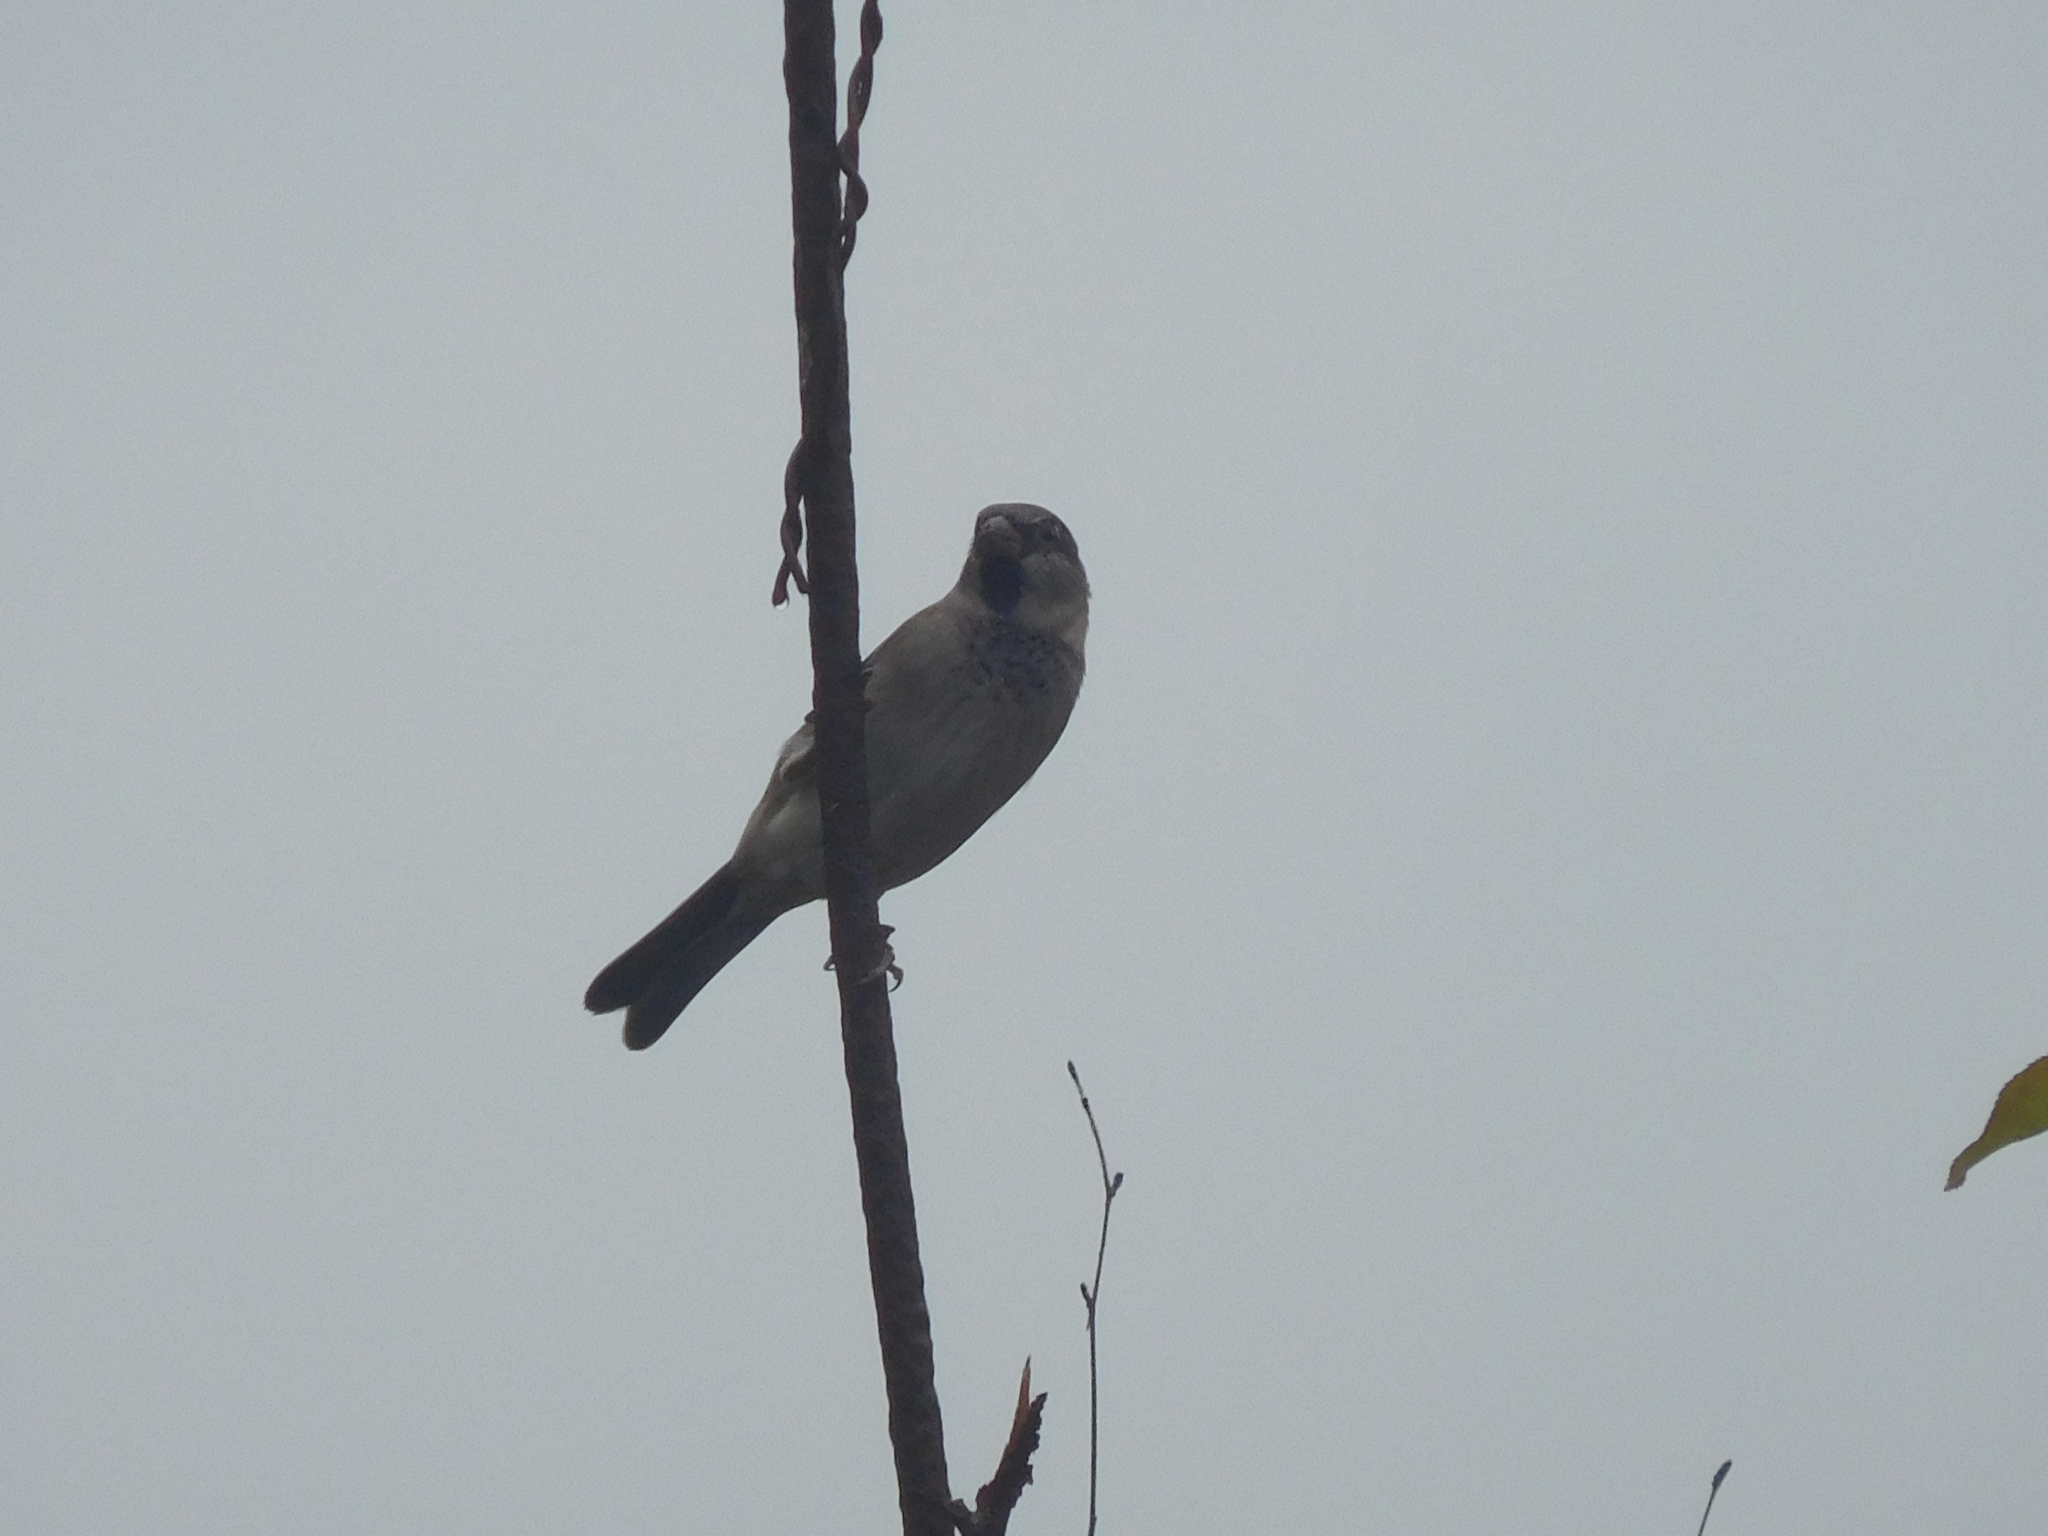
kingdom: Animalia
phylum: Chordata
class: Aves
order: Passeriformes
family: Passeridae
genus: Passer
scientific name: Passer domesticus
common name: House sparrow
